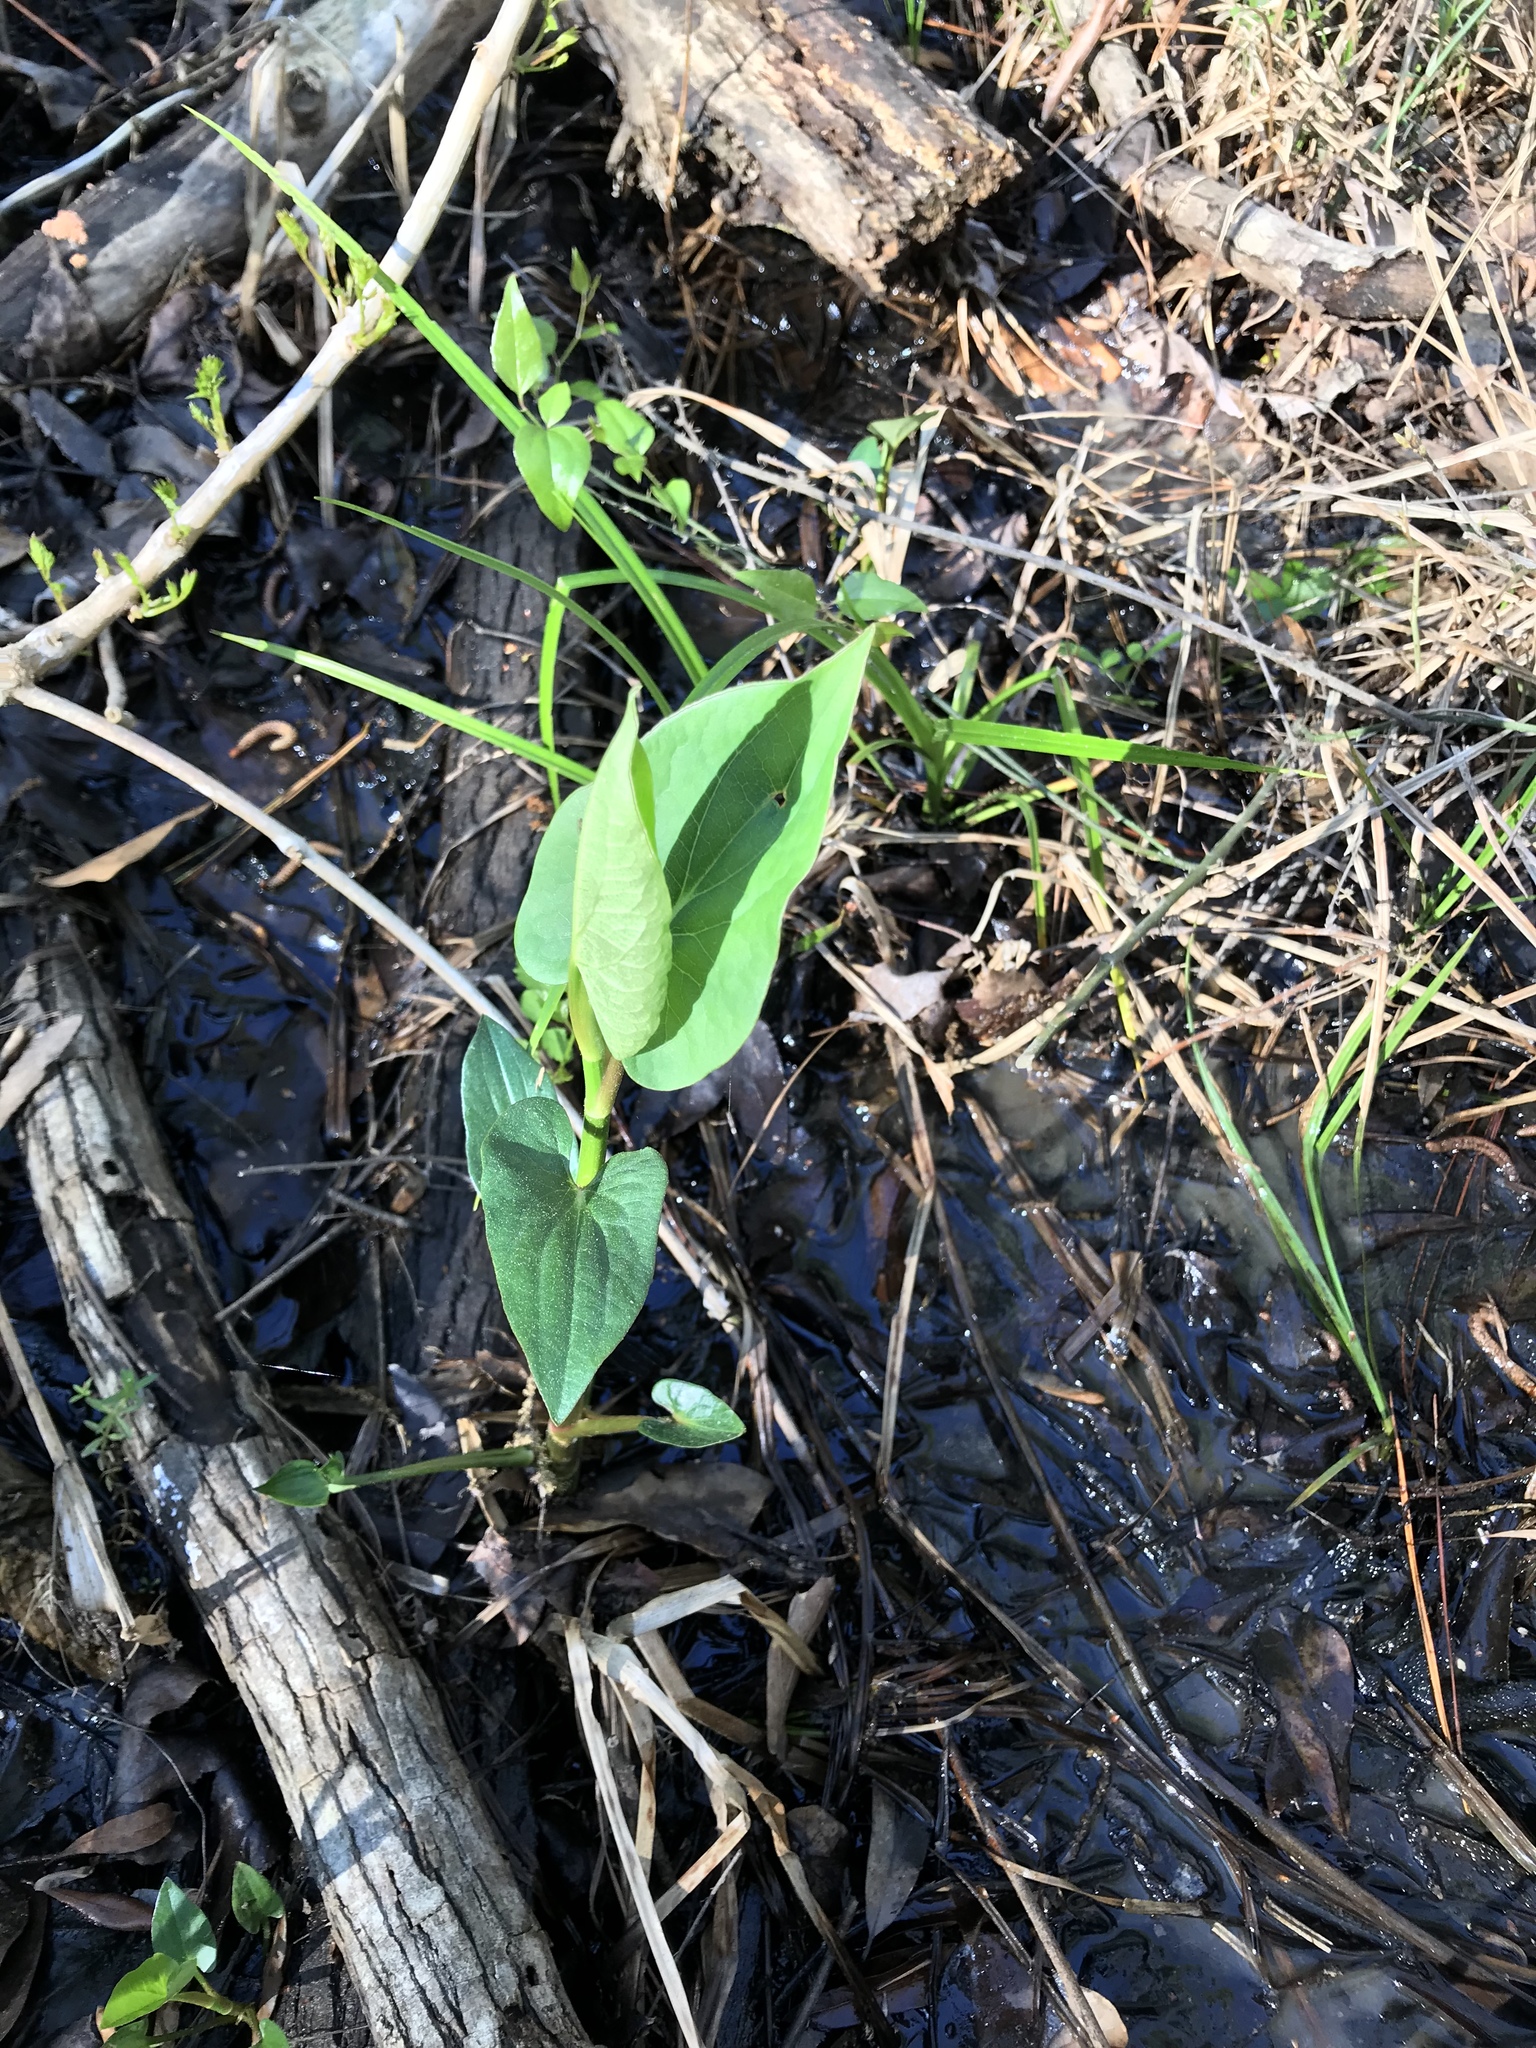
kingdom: Plantae
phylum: Tracheophyta
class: Magnoliopsida
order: Piperales
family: Saururaceae
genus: Saururus
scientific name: Saururus cernuus
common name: Lizard's-tail
